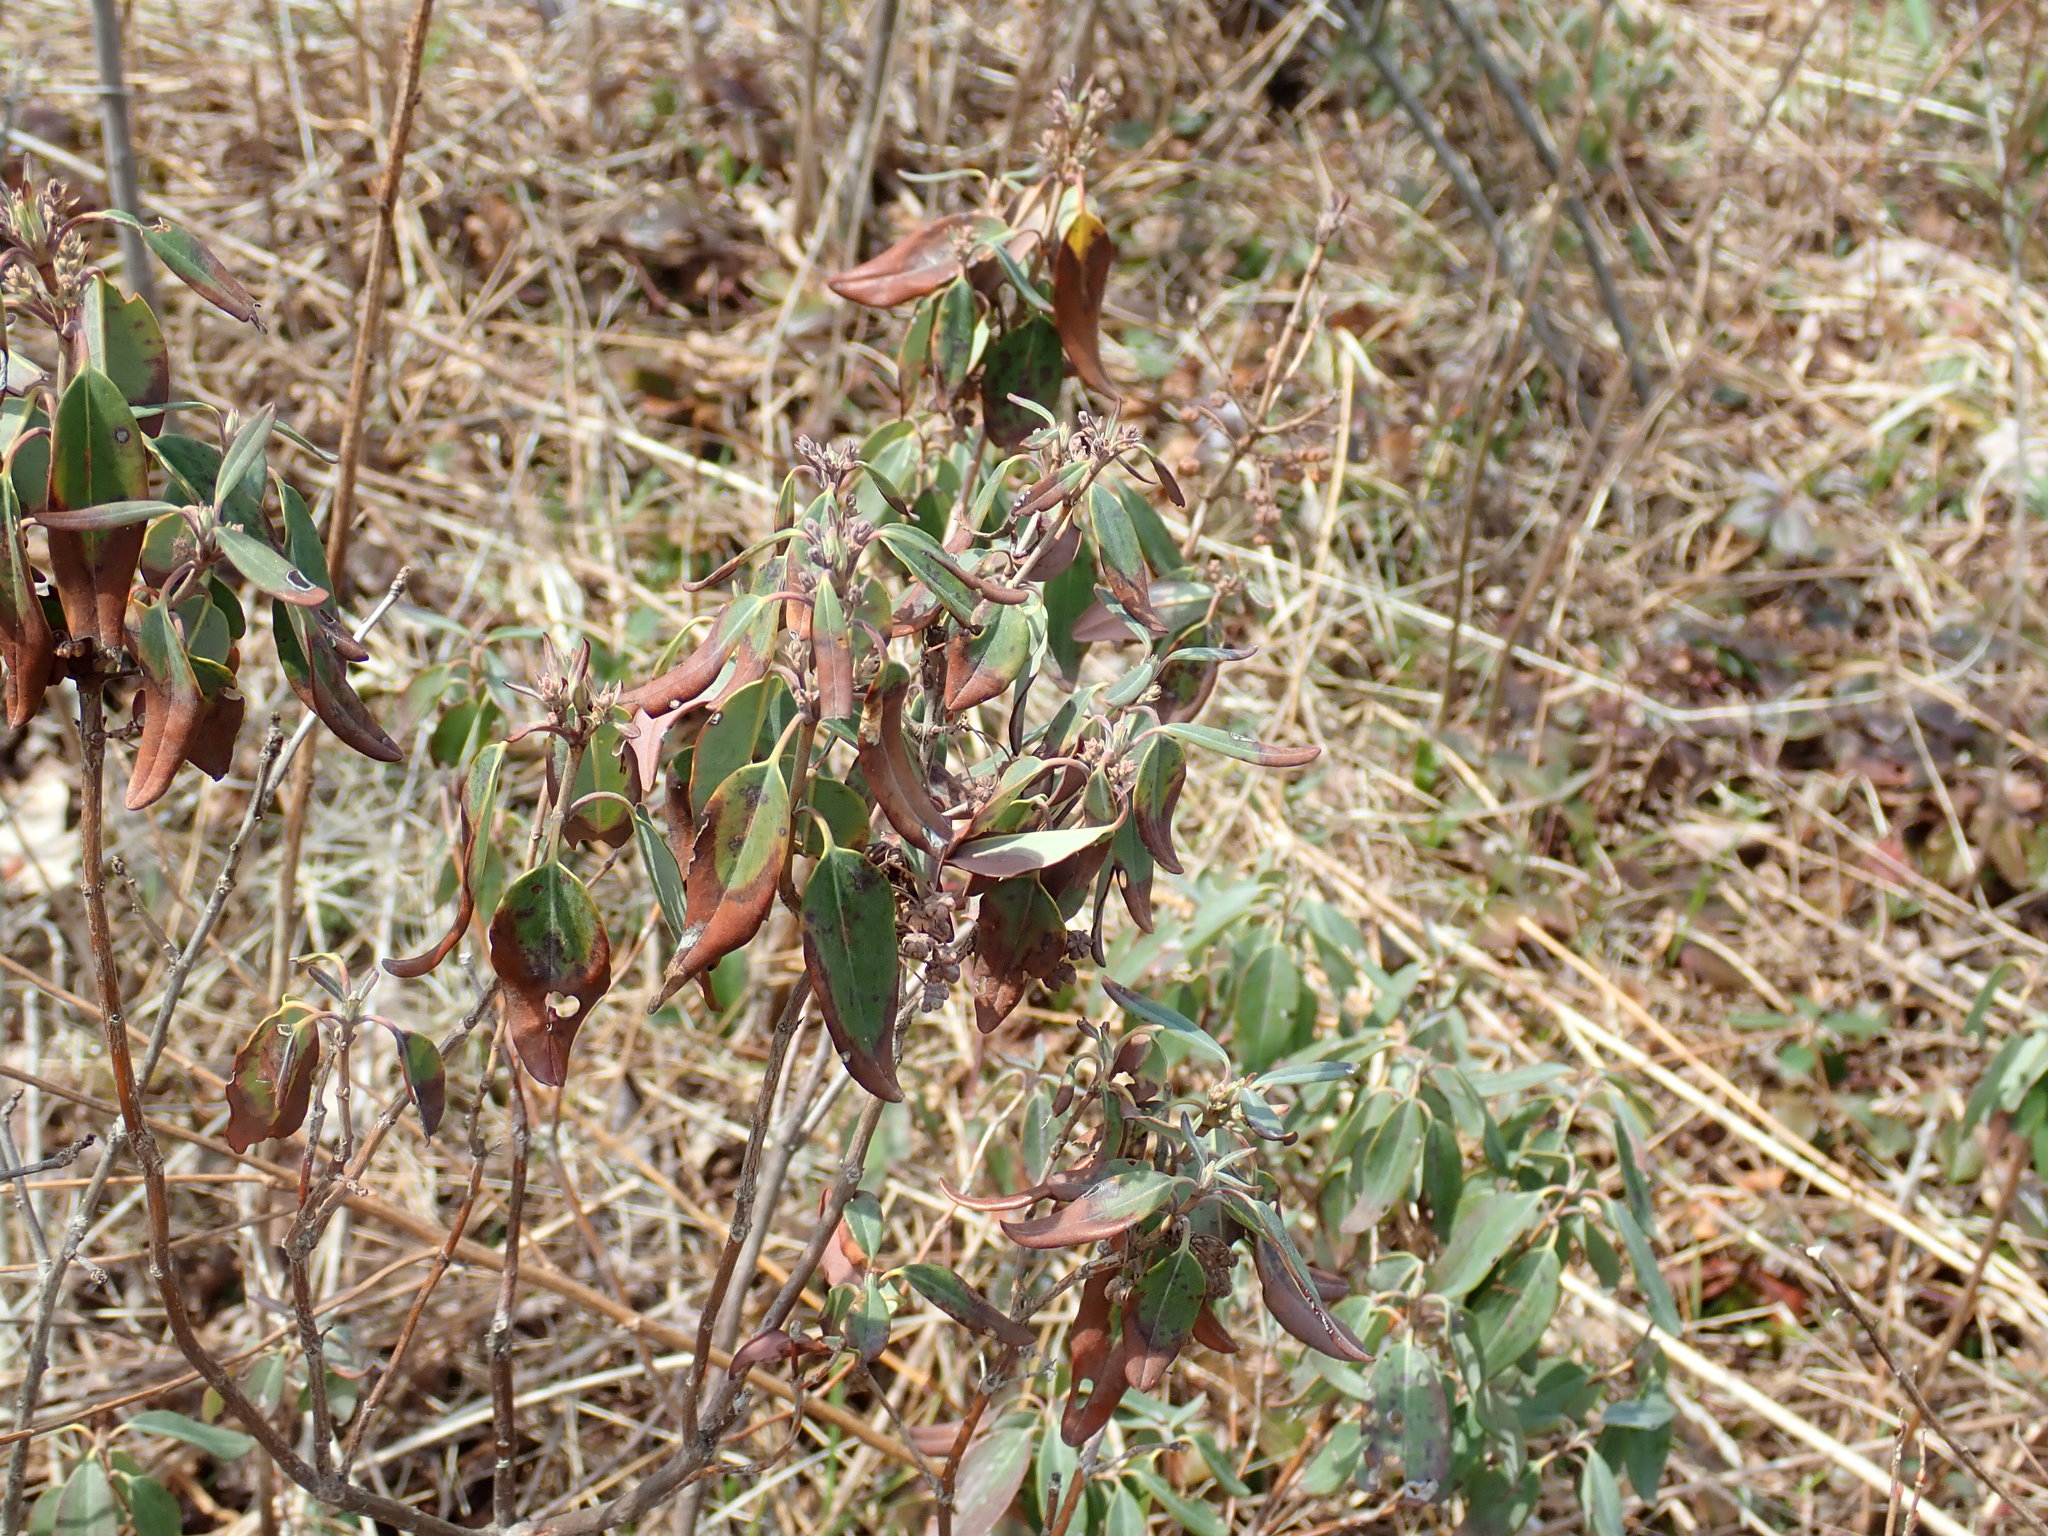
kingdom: Plantae
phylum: Tracheophyta
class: Magnoliopsida
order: Ericales
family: Ericaceae
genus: Kalmia
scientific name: Kalmia angustifolia
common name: Sheep-laurel
